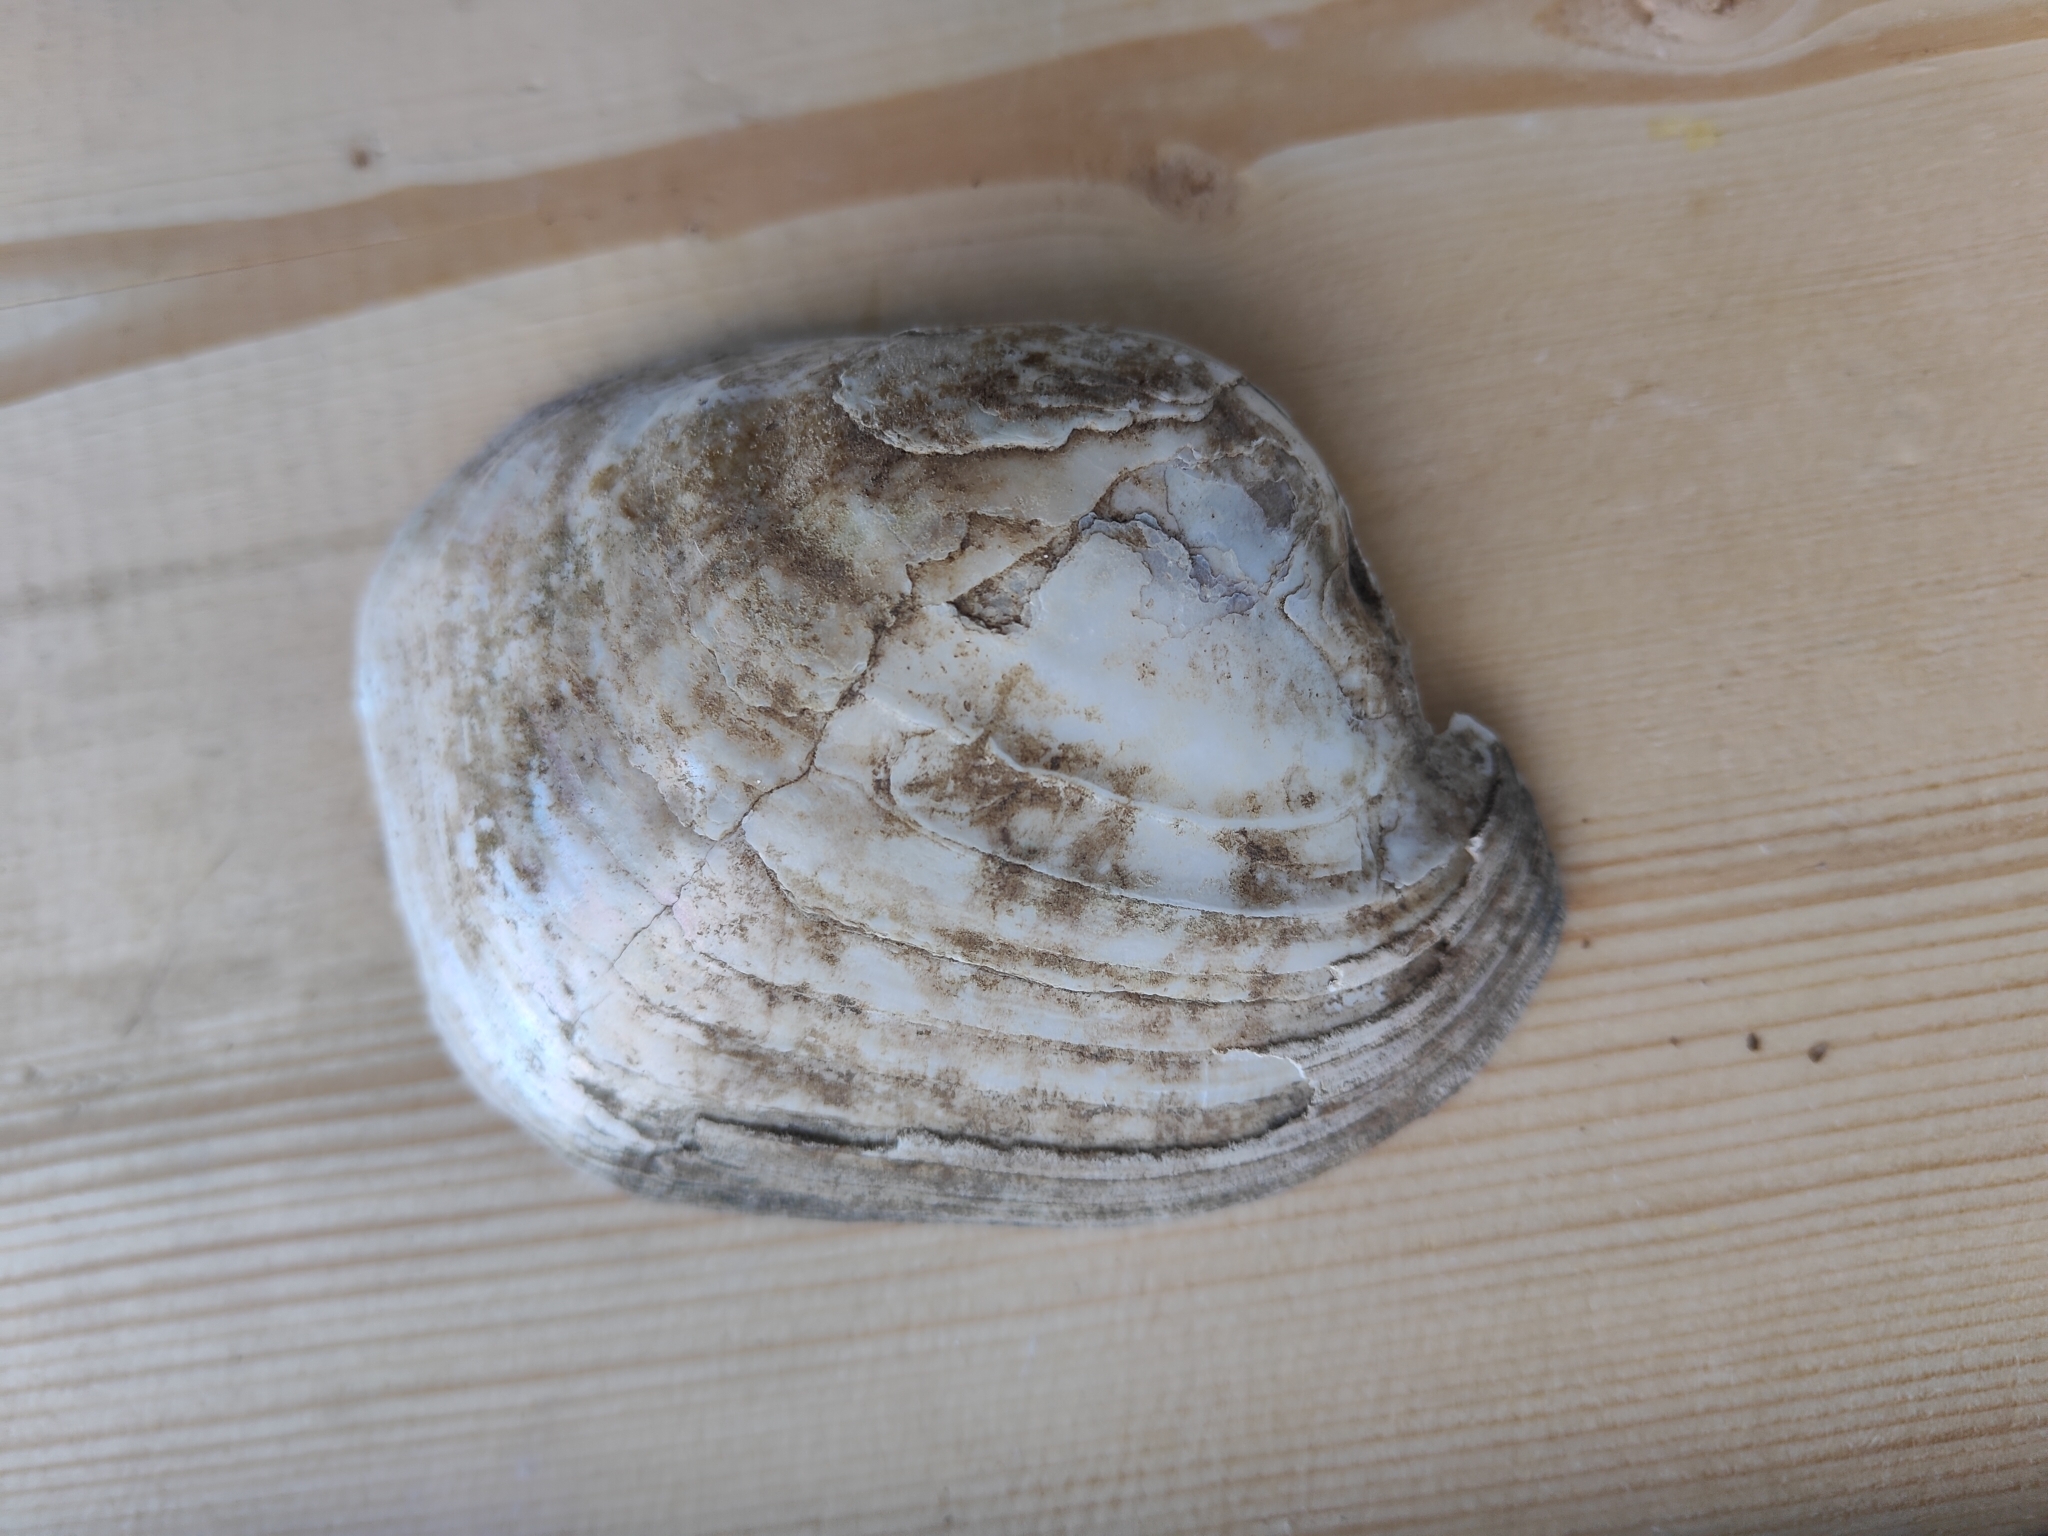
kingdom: Animalia
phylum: Mollusca
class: Bivalvia
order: Unionida
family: Unionidae
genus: Lampsilis
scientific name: Lampsilis cardium
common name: Plain pocketbook
